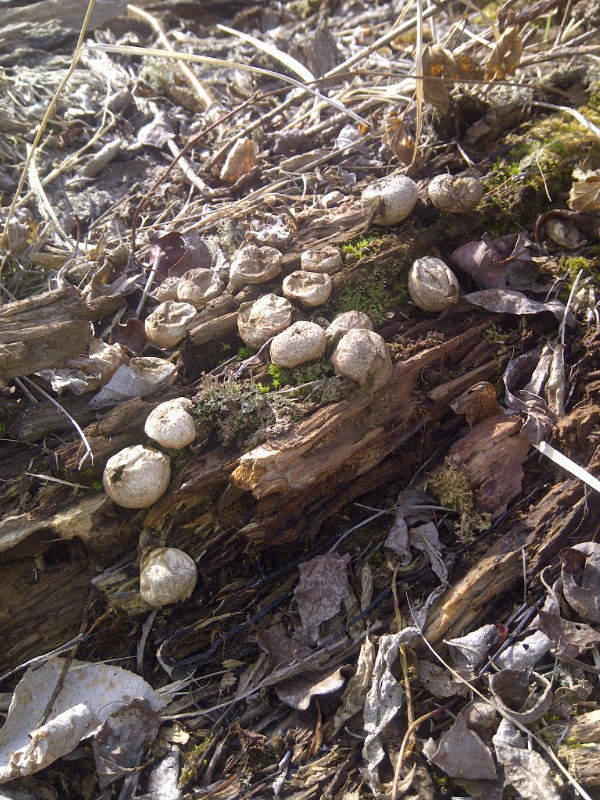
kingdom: Fungi
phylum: Basidiomycota
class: Agaricomycetes
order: Agaricales
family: Lycoperdaceae
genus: Apioperdon
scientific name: Apioperdon pyriforme
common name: Pear-shaped puffball
